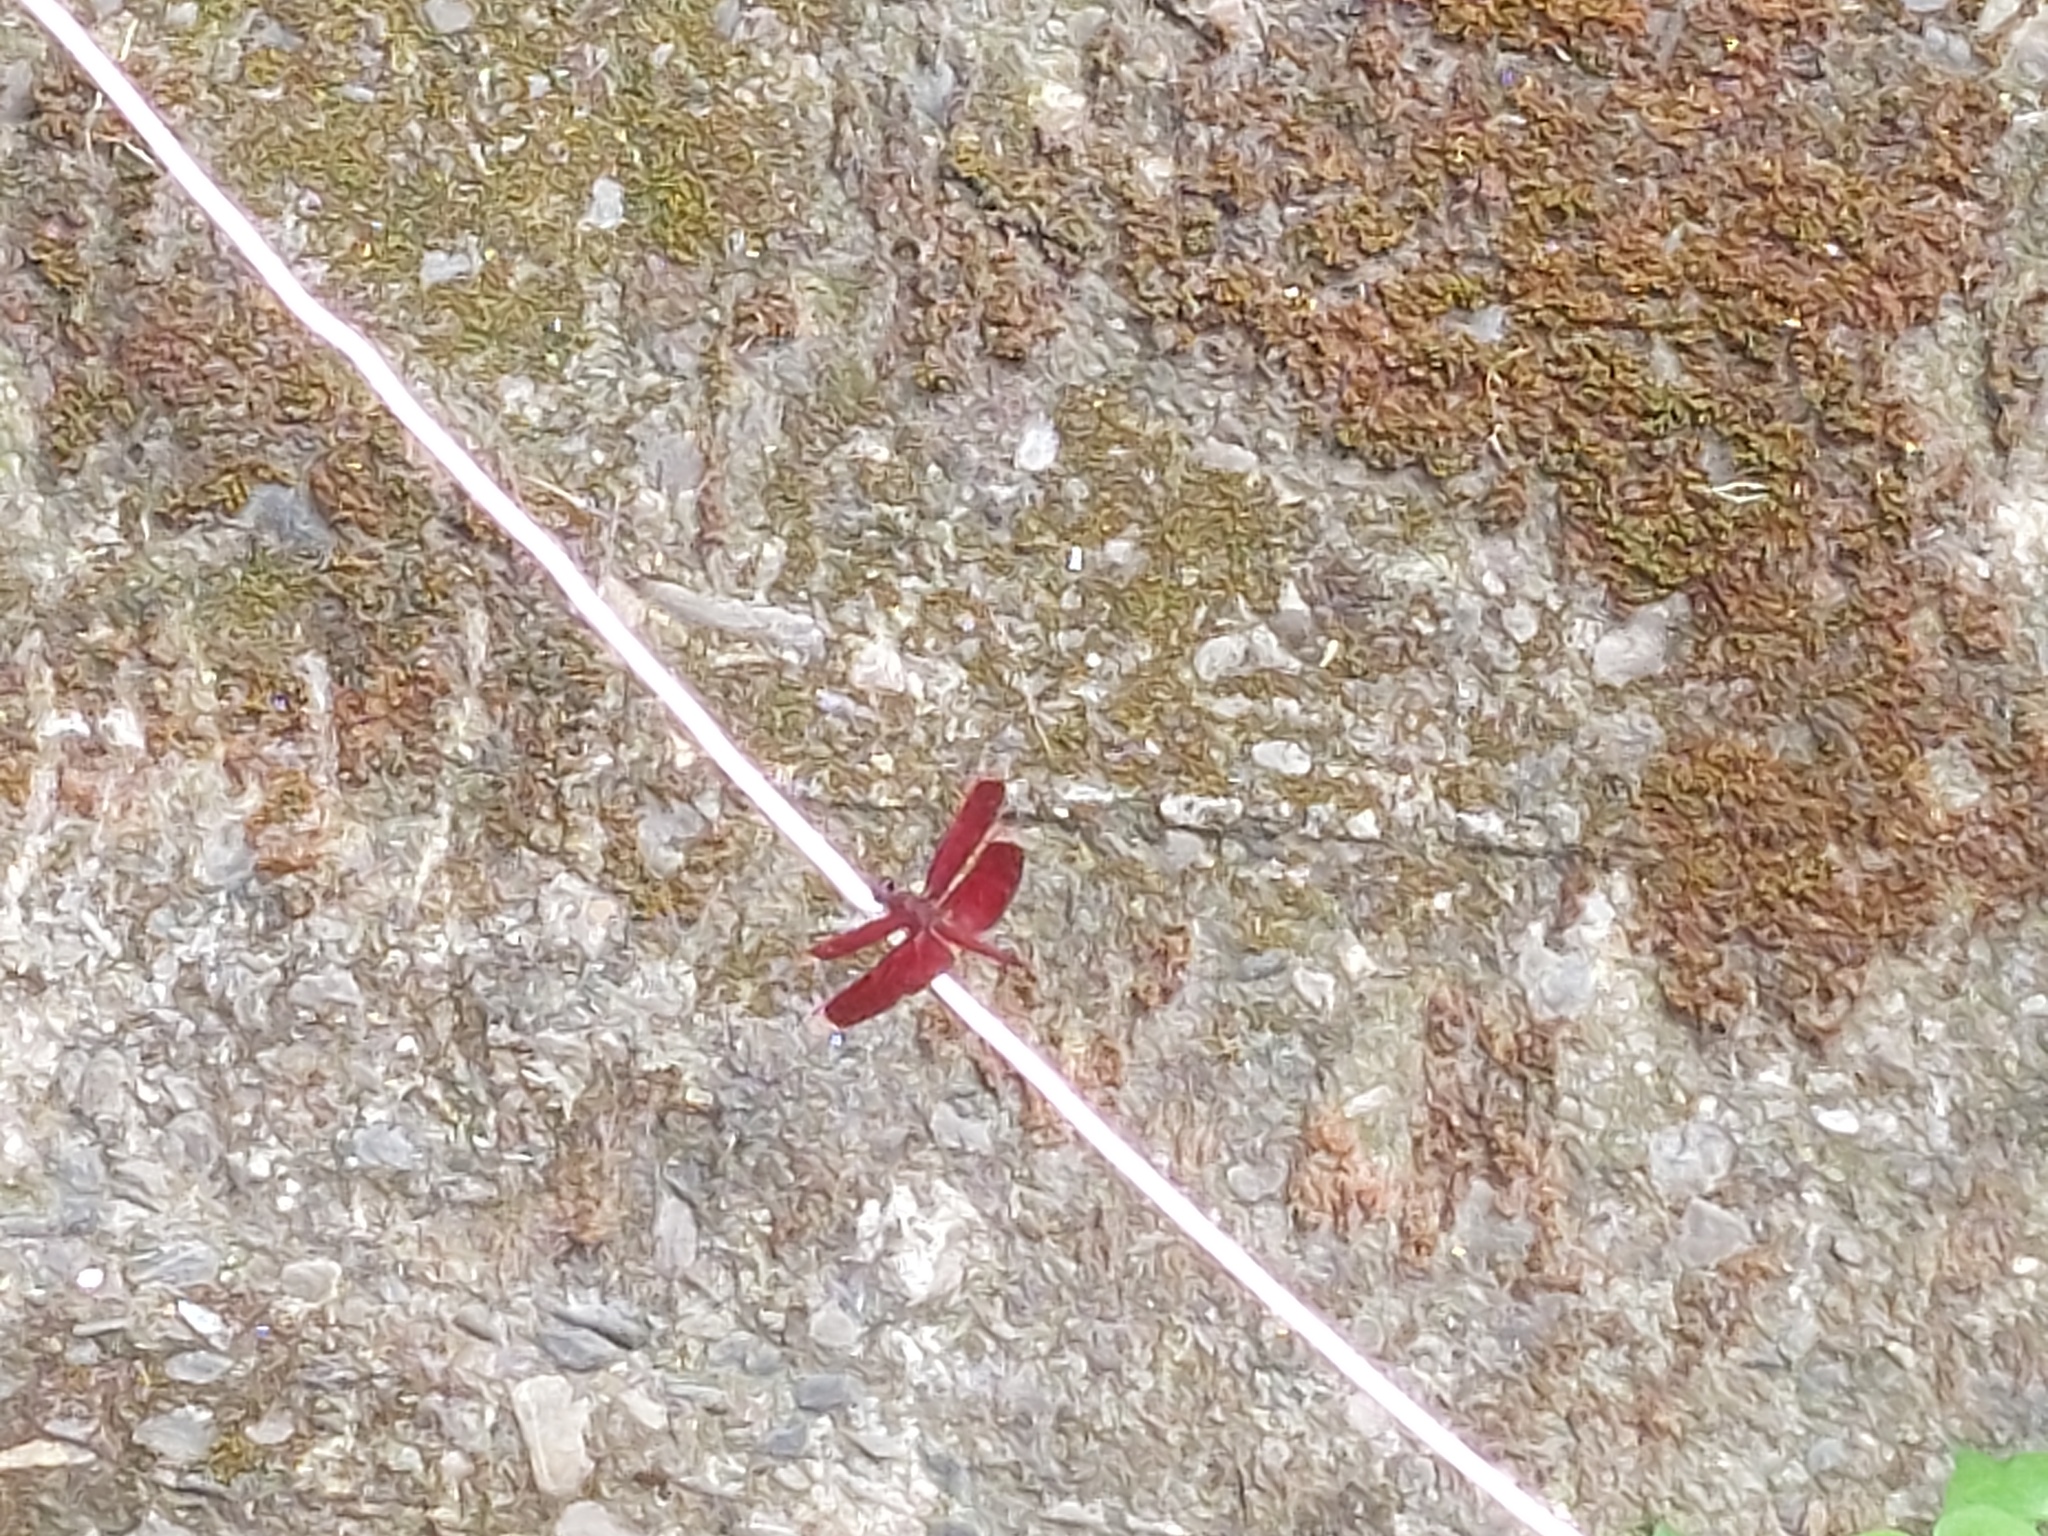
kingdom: Animalia
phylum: Arthropoda
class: Insecta
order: Odonata
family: Libellulidae
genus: Neurothemis
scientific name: Neurothemis taiwanensis
